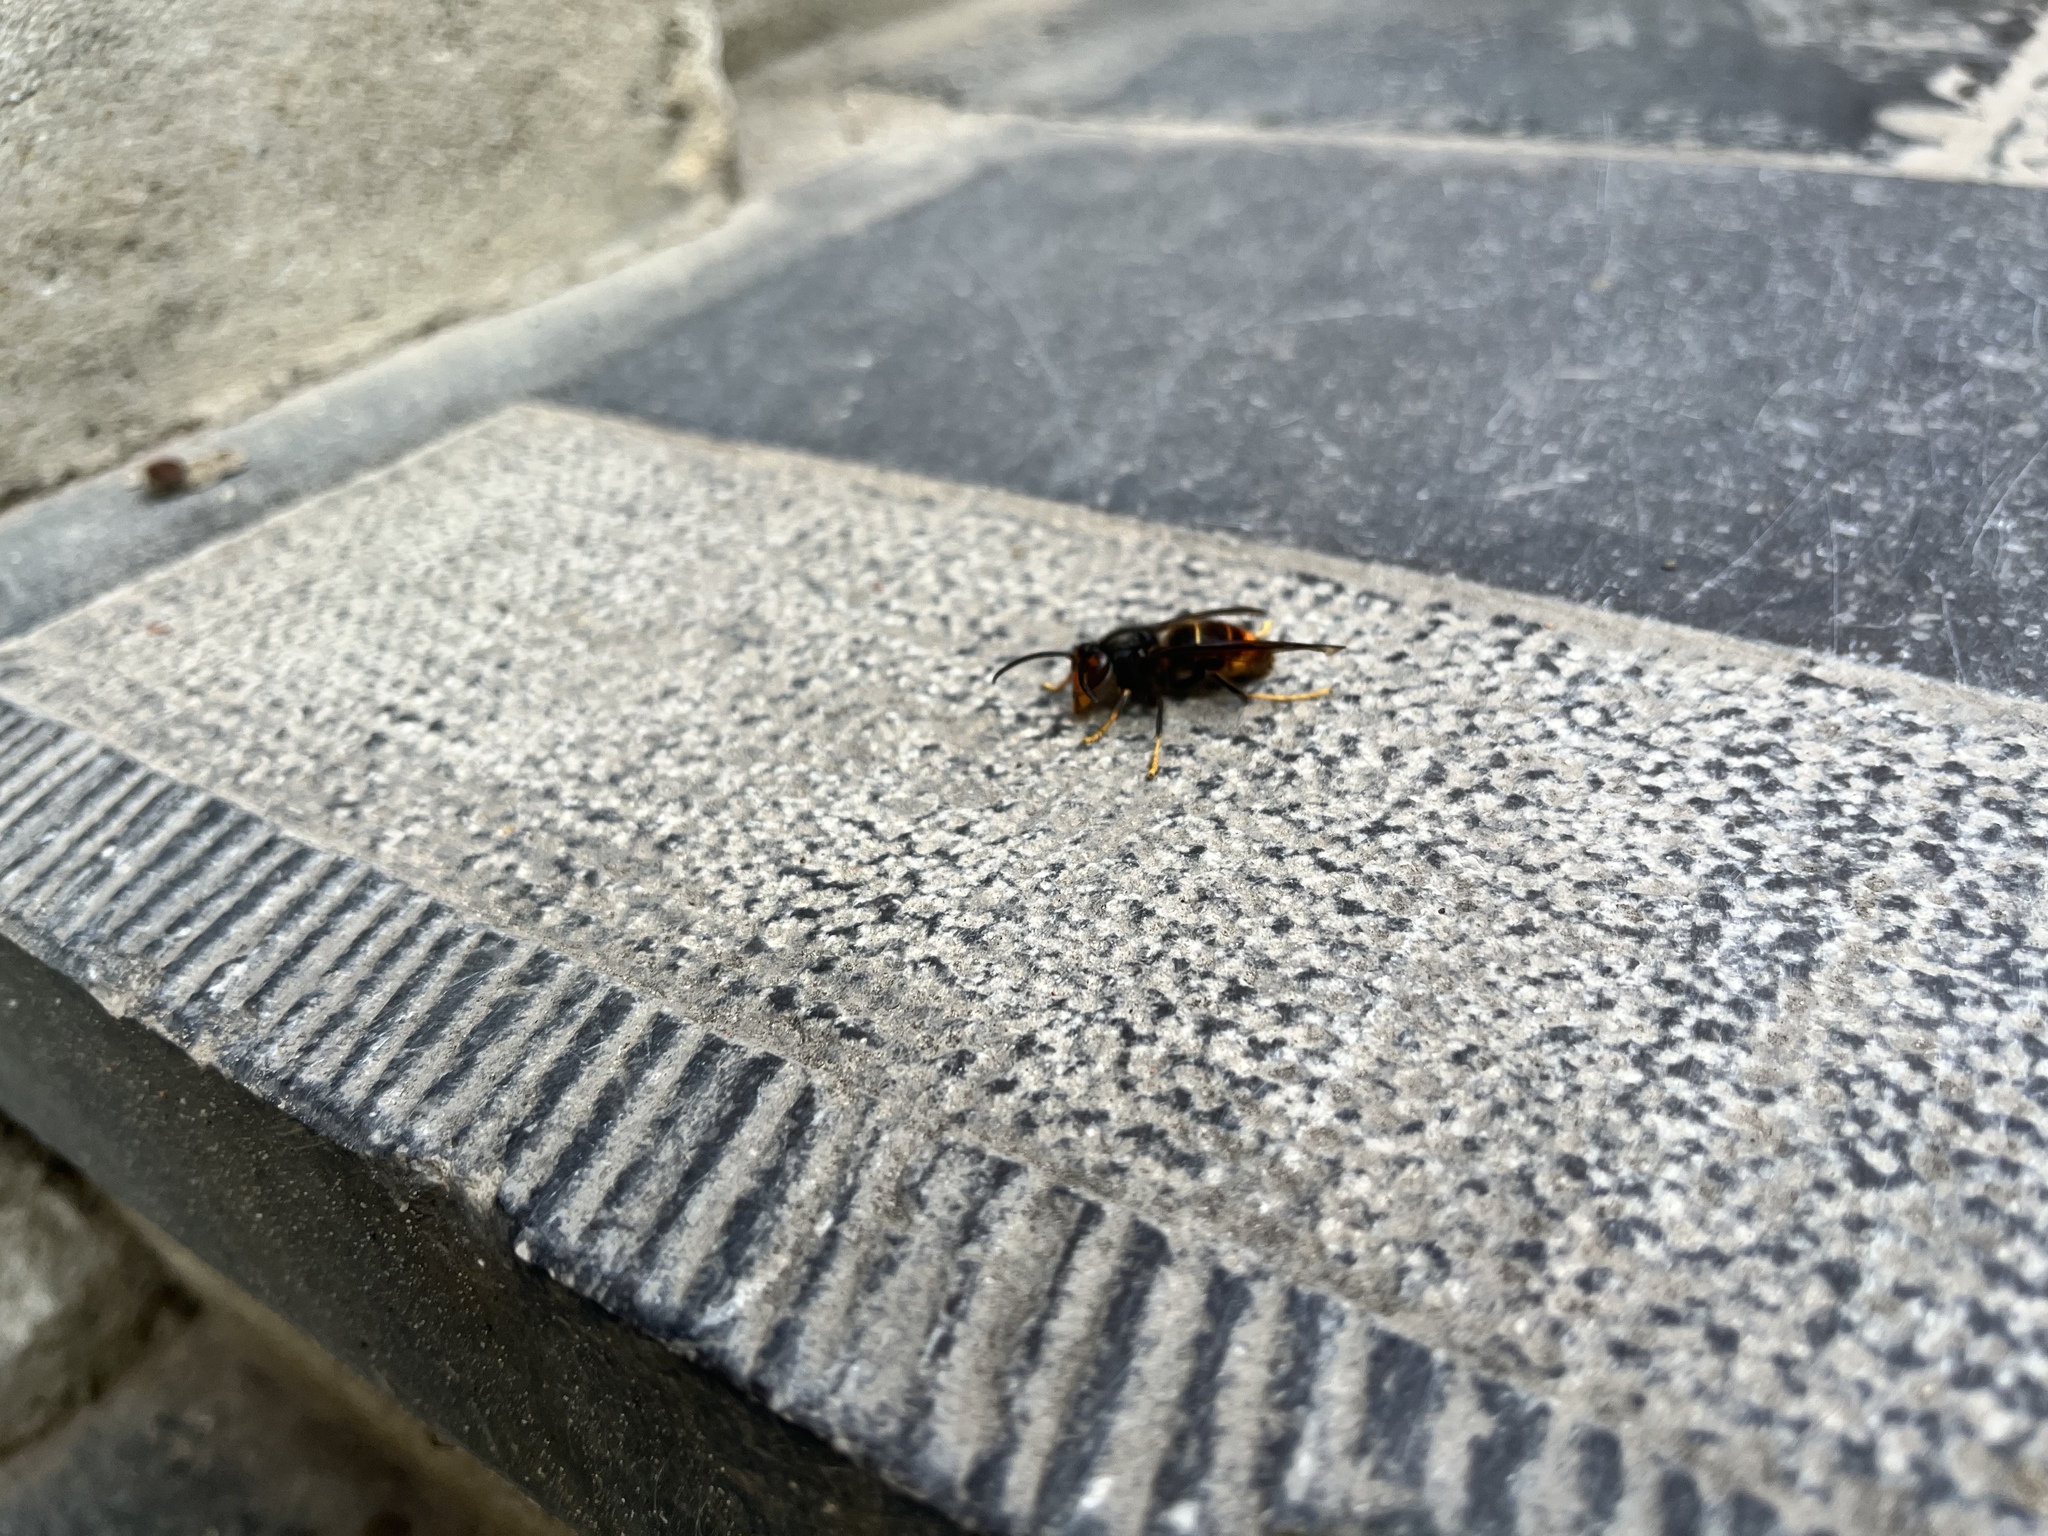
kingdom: Animalia
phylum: Arthropoda
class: Insecta
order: Hymenoptera
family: Vespidae
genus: Vespa
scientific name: Vespa velutina
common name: Asian hornet
